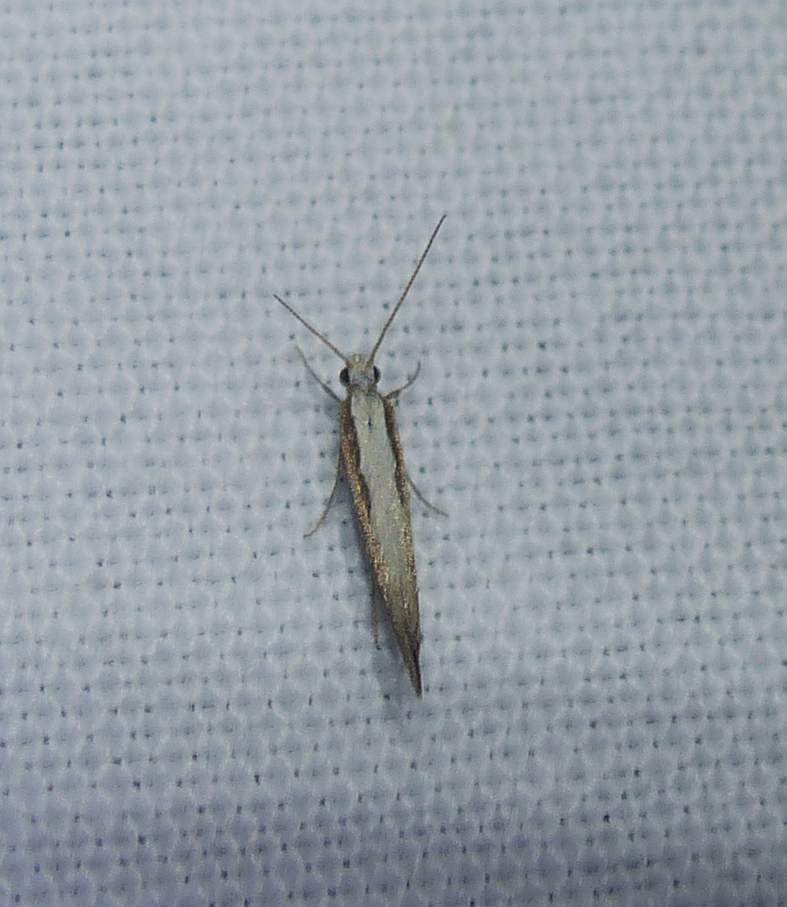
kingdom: Animalia
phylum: Arthropoda
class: Insecta
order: Lepidoptera
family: Plutellidae
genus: Plutella
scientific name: Plutella xylostella
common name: Diamond-back moth
